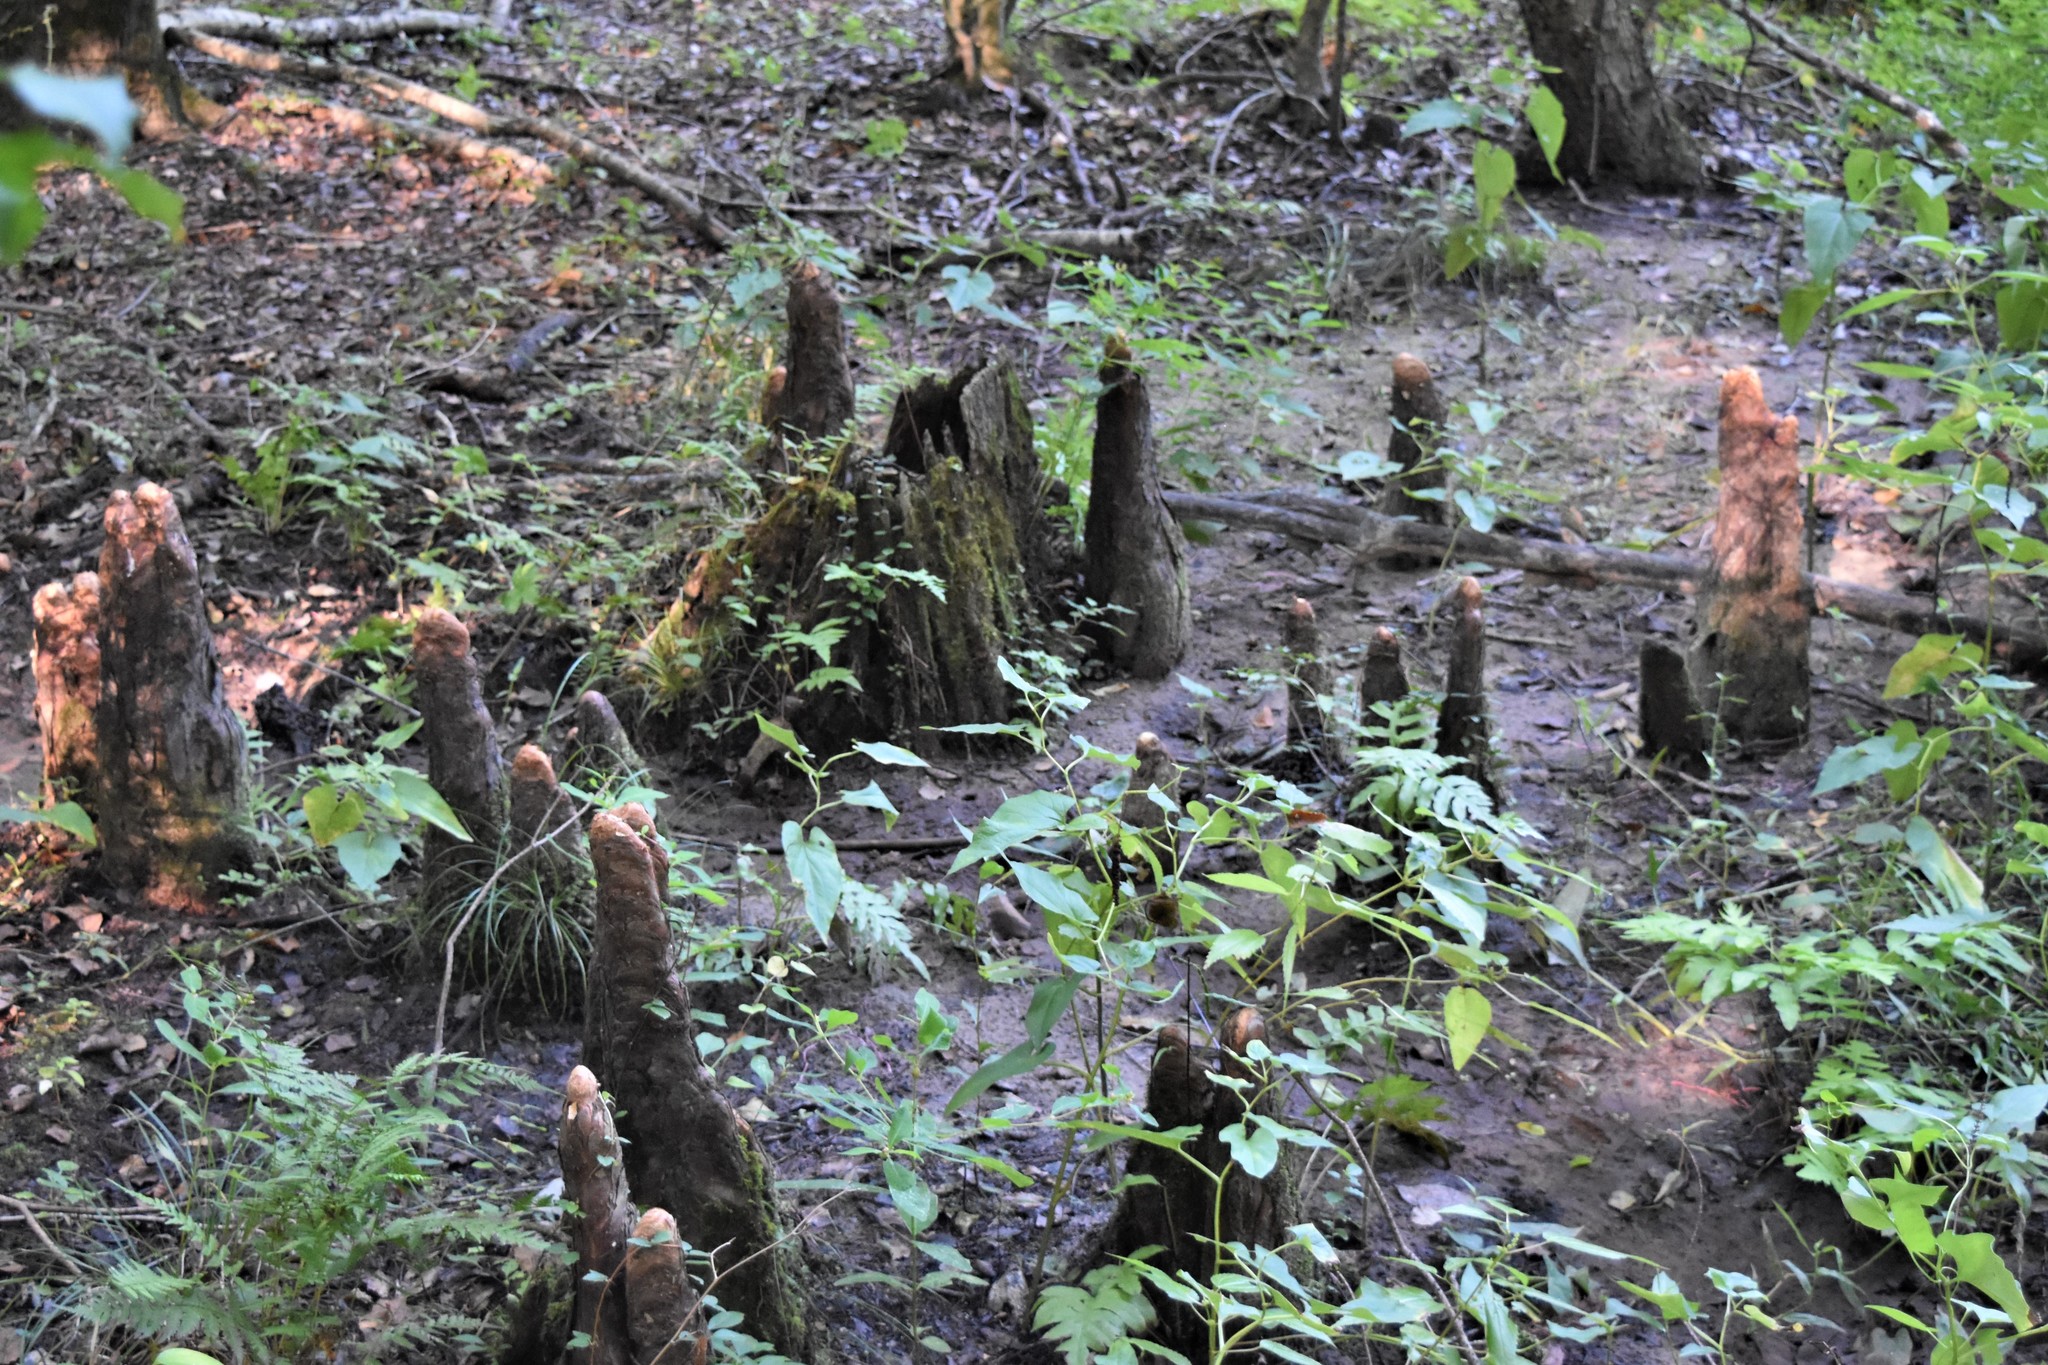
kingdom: Plantae
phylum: Tracheophyta
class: Pinopsida
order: Pinales
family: Cupressaceae
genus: Taxodium
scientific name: Taxodium distichum
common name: Bald cypress
